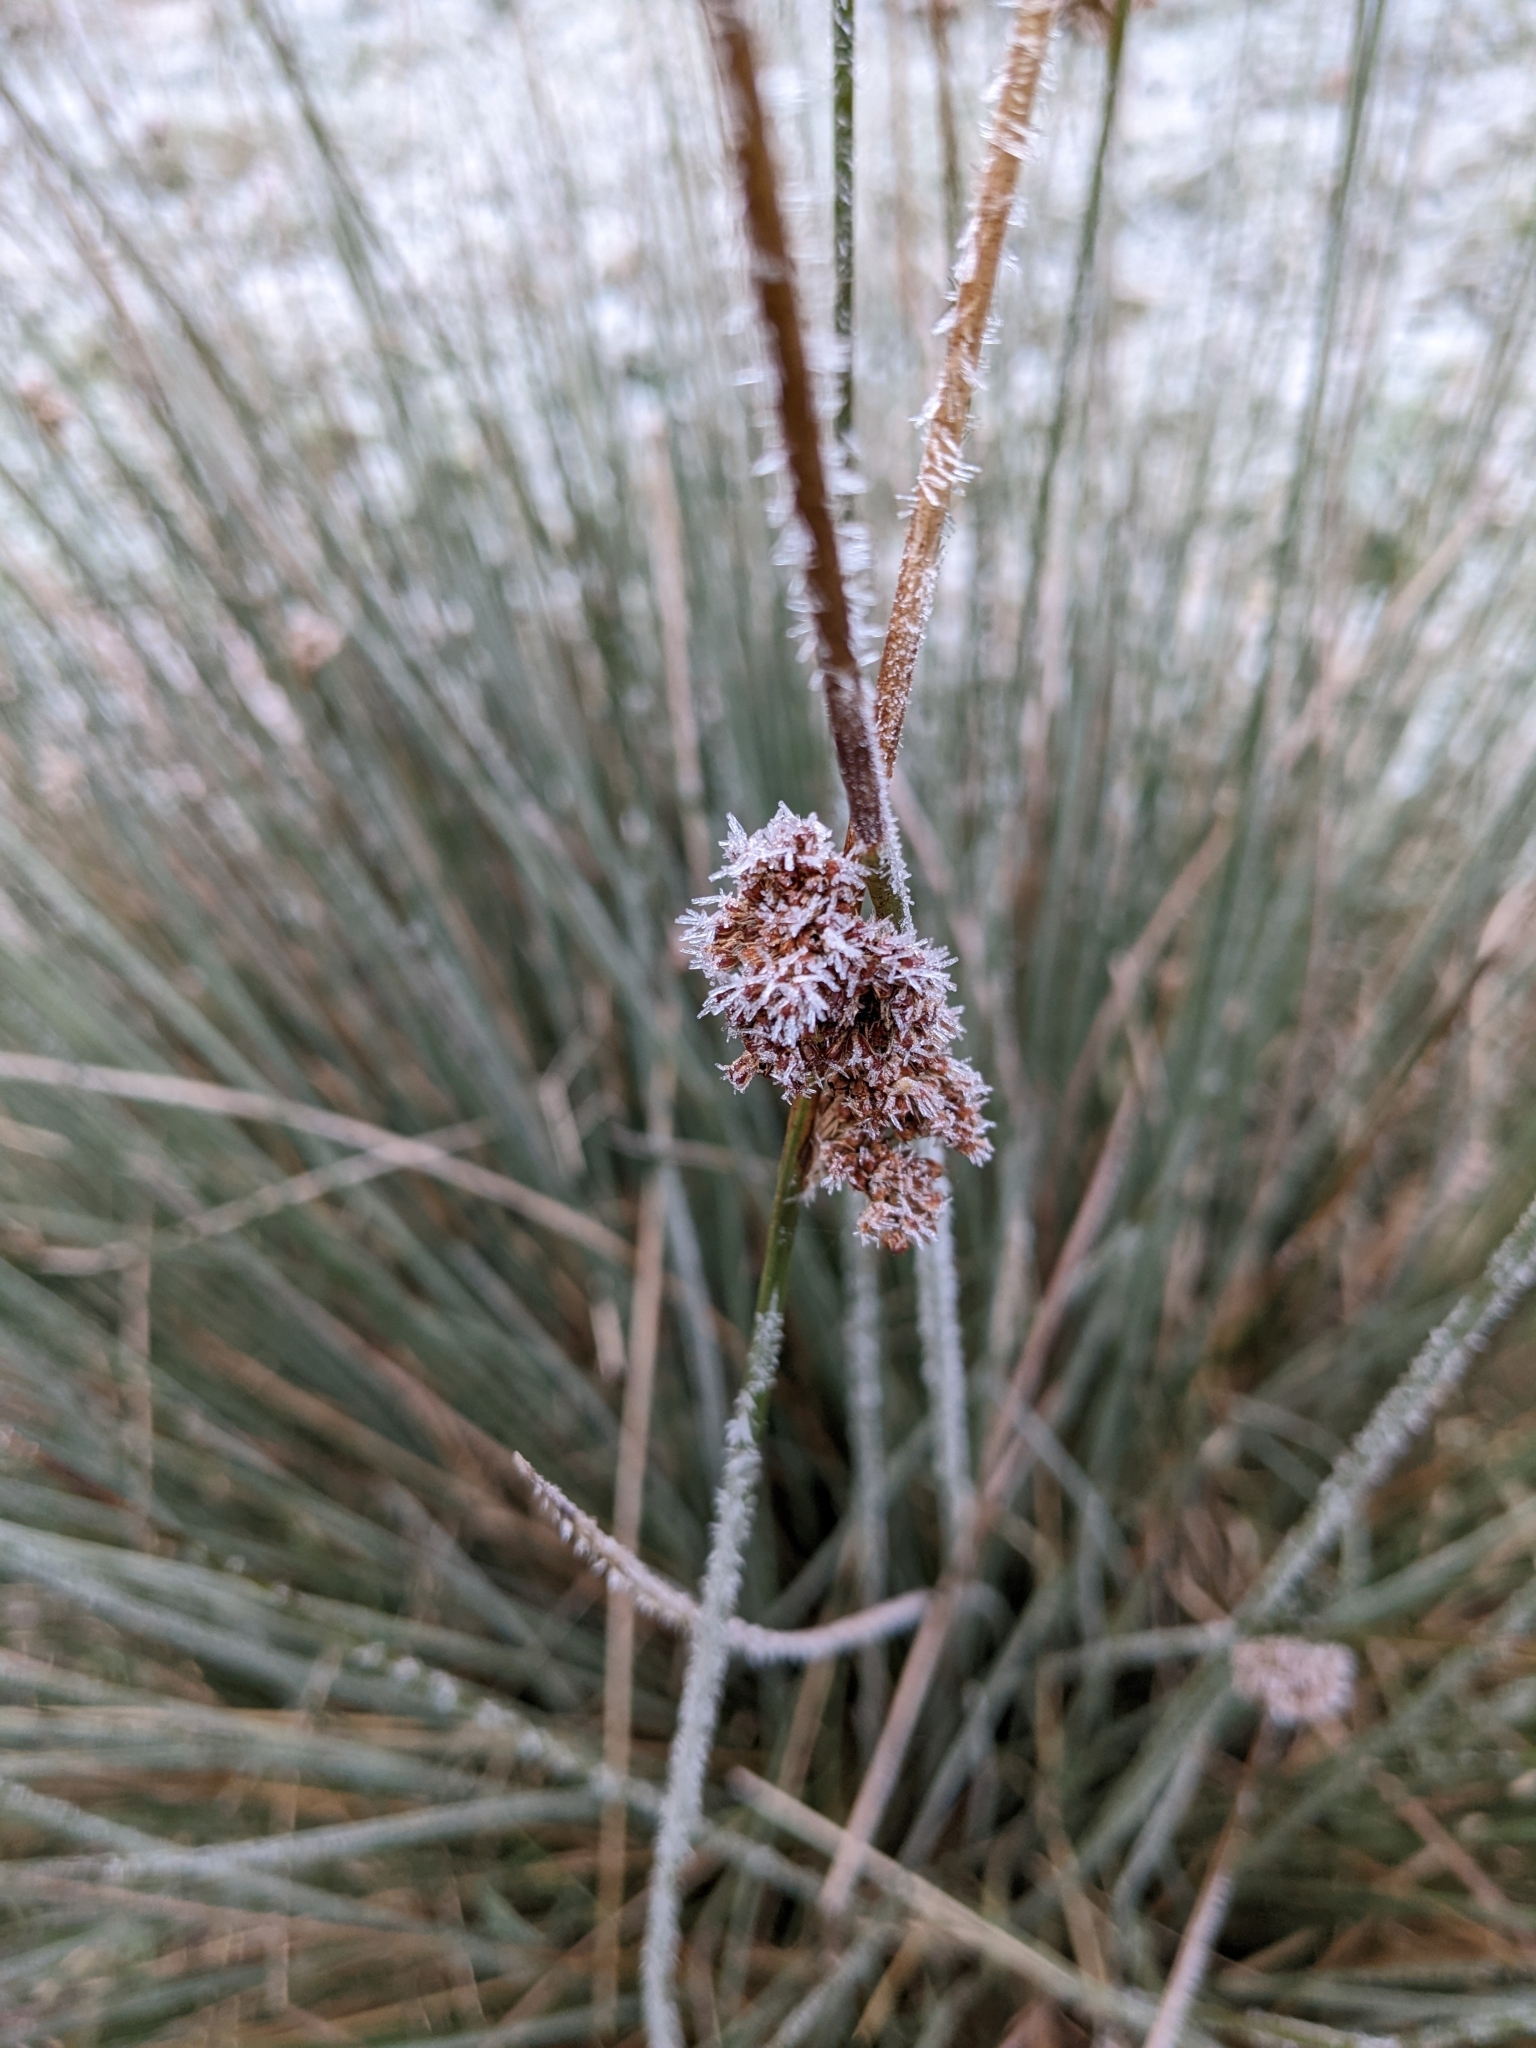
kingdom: Plantae
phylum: Tracheophyta
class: Liliopsida
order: Poales
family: Juncaceae
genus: Juncus
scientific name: Juncus effusus
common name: Soft rush
